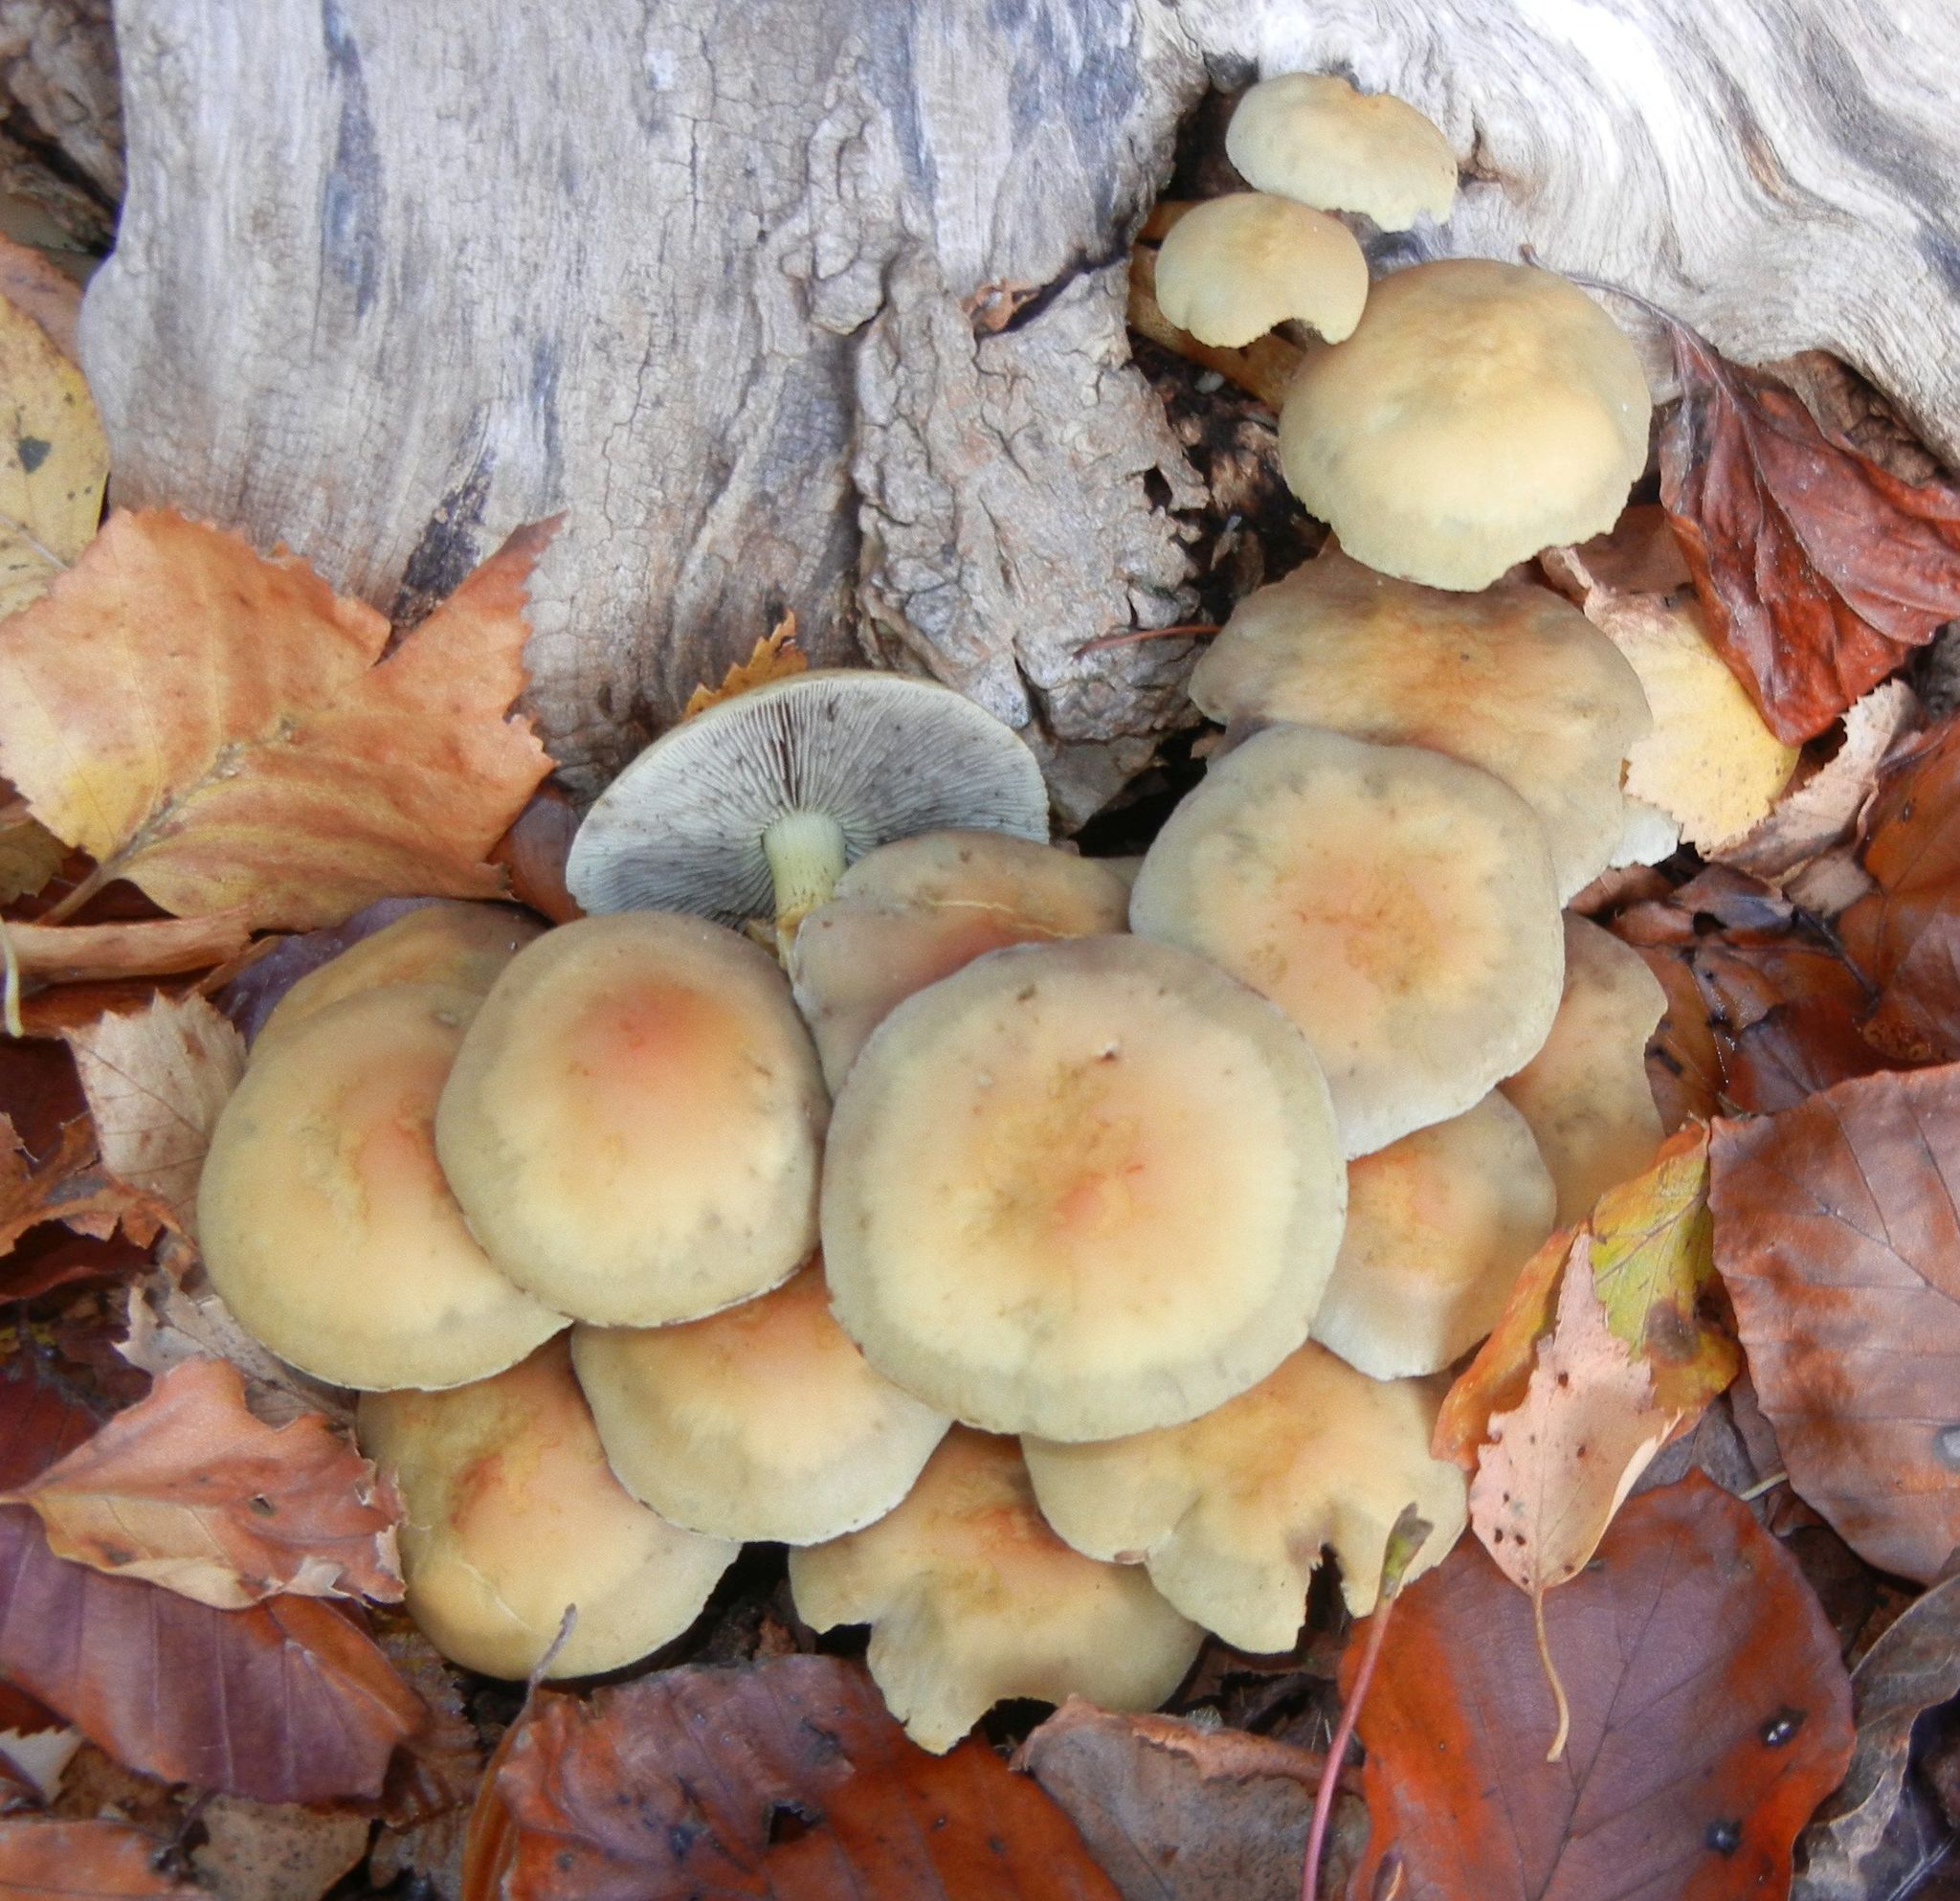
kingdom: Fungi
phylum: Basidiomycota
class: Agaricomycetes
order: Agaricales
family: Strophariaceae
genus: Hypholoma
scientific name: Hypholoma fasciculare
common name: Sulphur tuft
